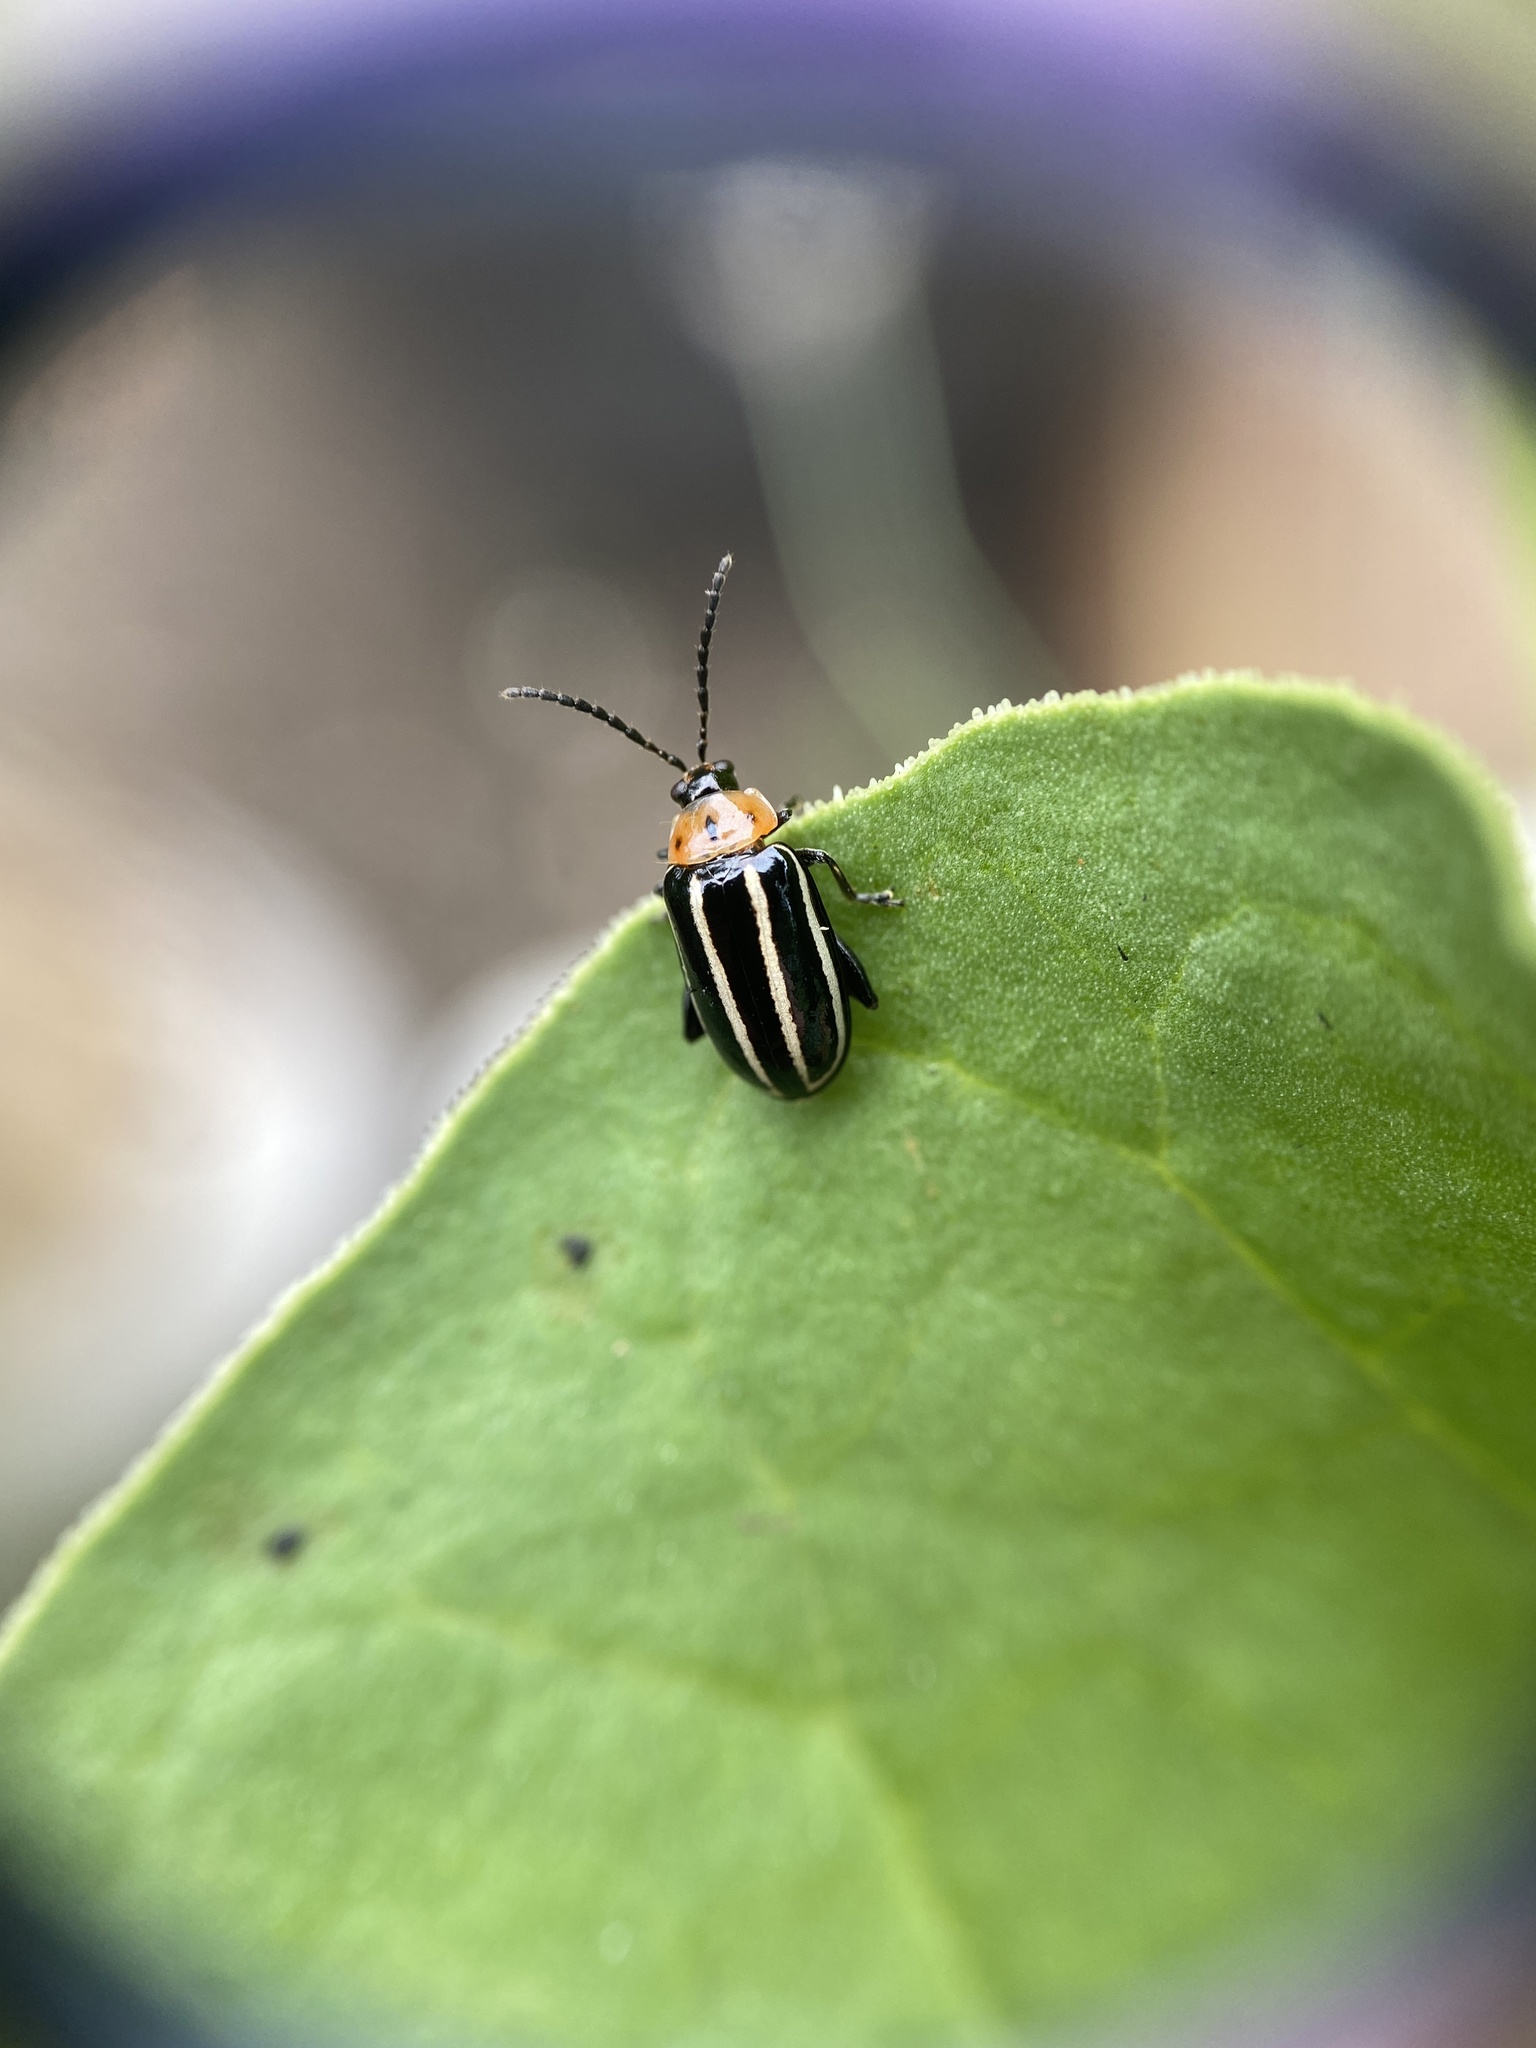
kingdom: Animalia
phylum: Arthropoda
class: Insecta
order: Coleoptera
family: Chrysomelidae
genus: Disonycha
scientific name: Disonycha glabrata
